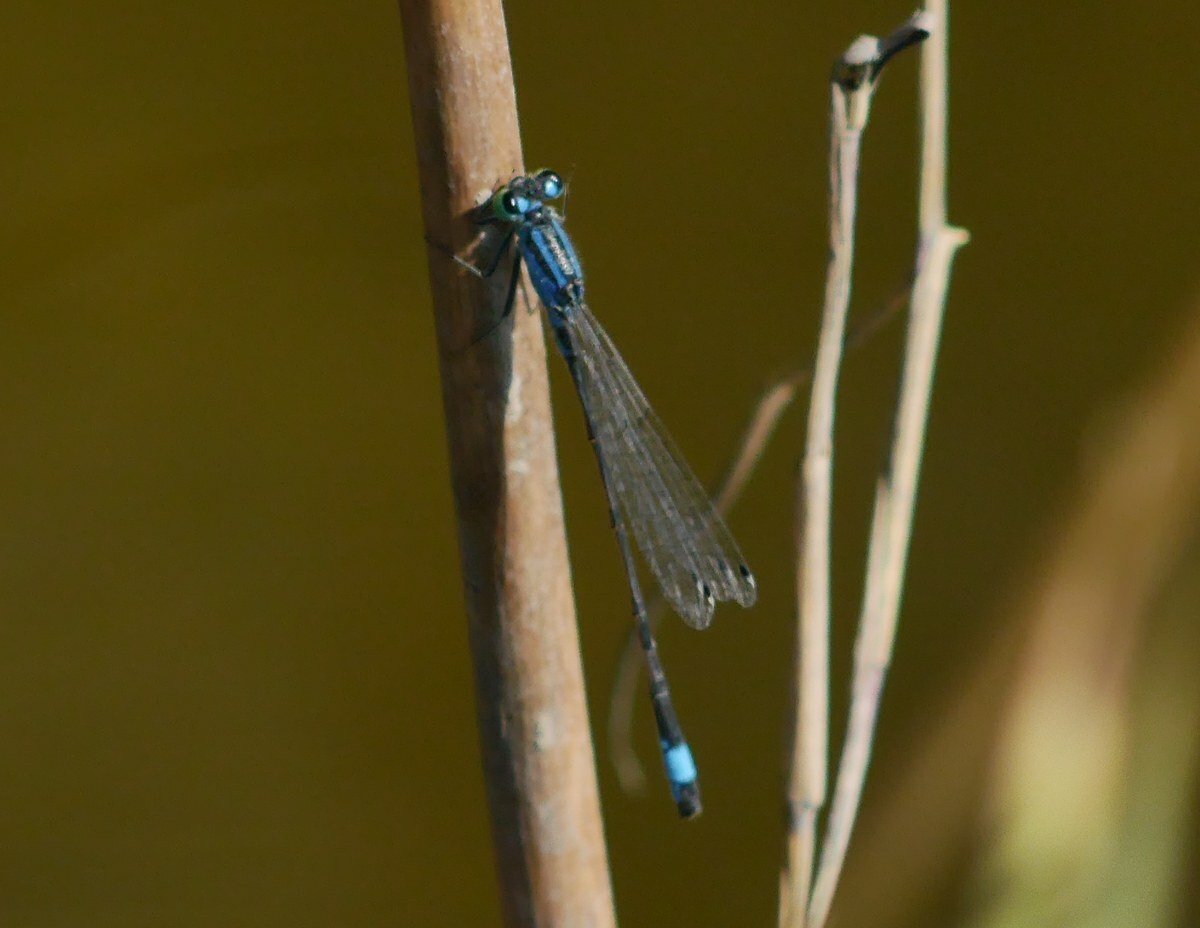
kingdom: Animalia
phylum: Arthropoda
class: Insecta
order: Odonata
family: Coenagrionidae
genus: Ischnura
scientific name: Ischnura elegans
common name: Blue-tailed damselfly
